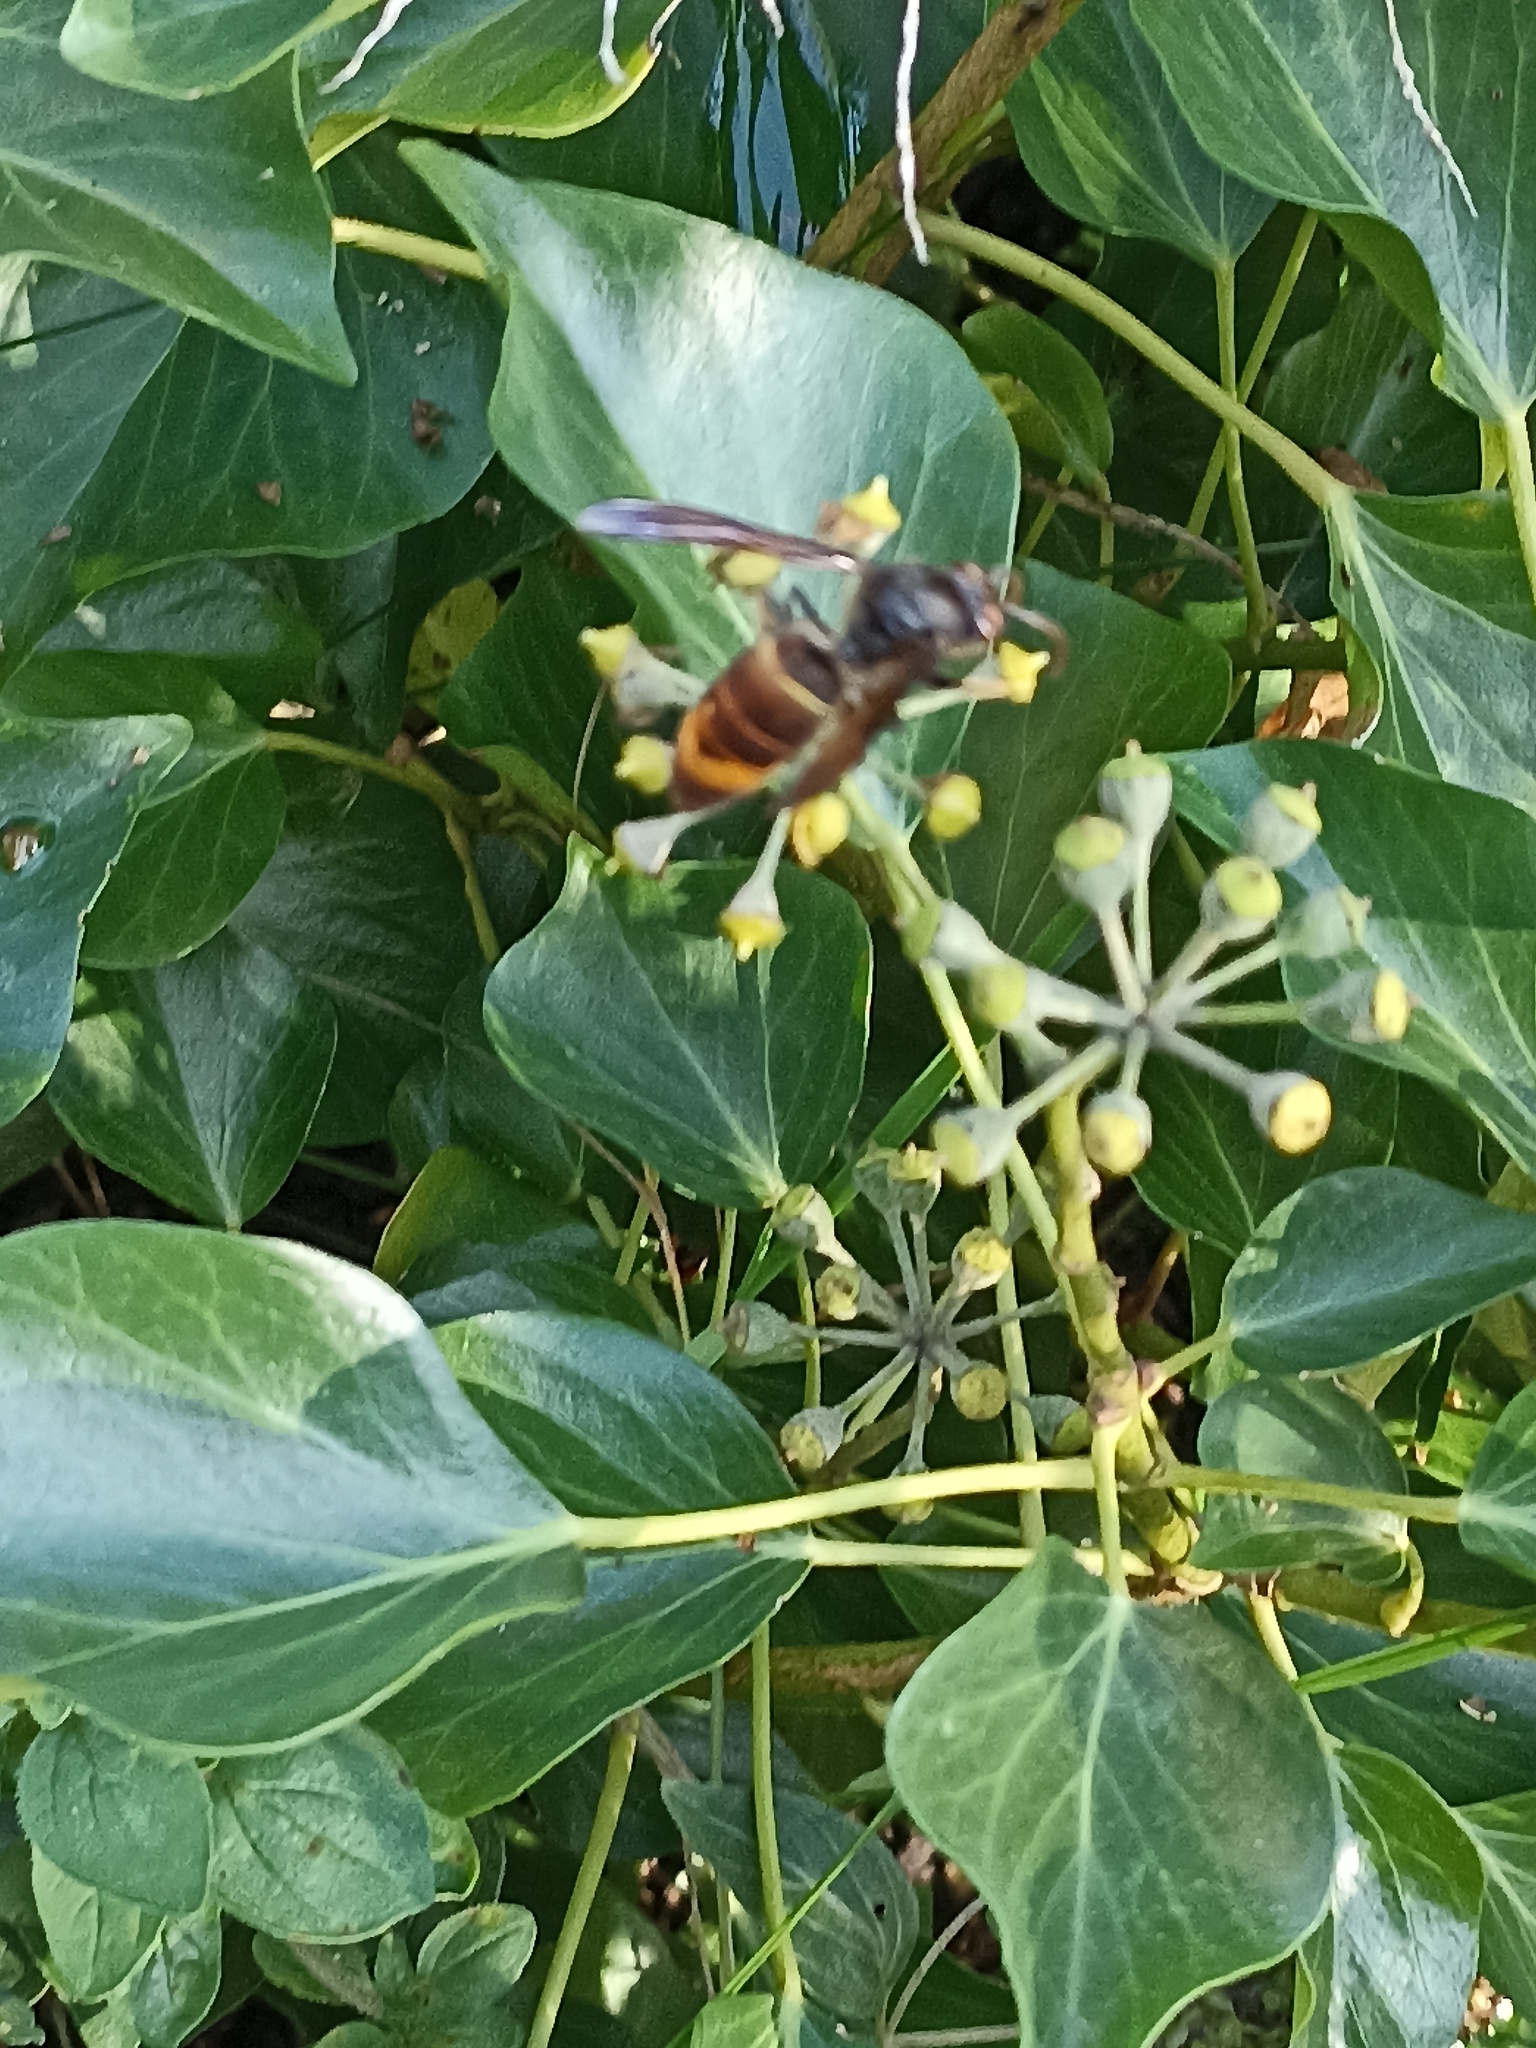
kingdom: Animalia
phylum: Arthropoda
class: Insecta
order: Hymenoptera
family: Vespidae
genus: Vespa
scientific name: Vespa velutina
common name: Asian hornet
